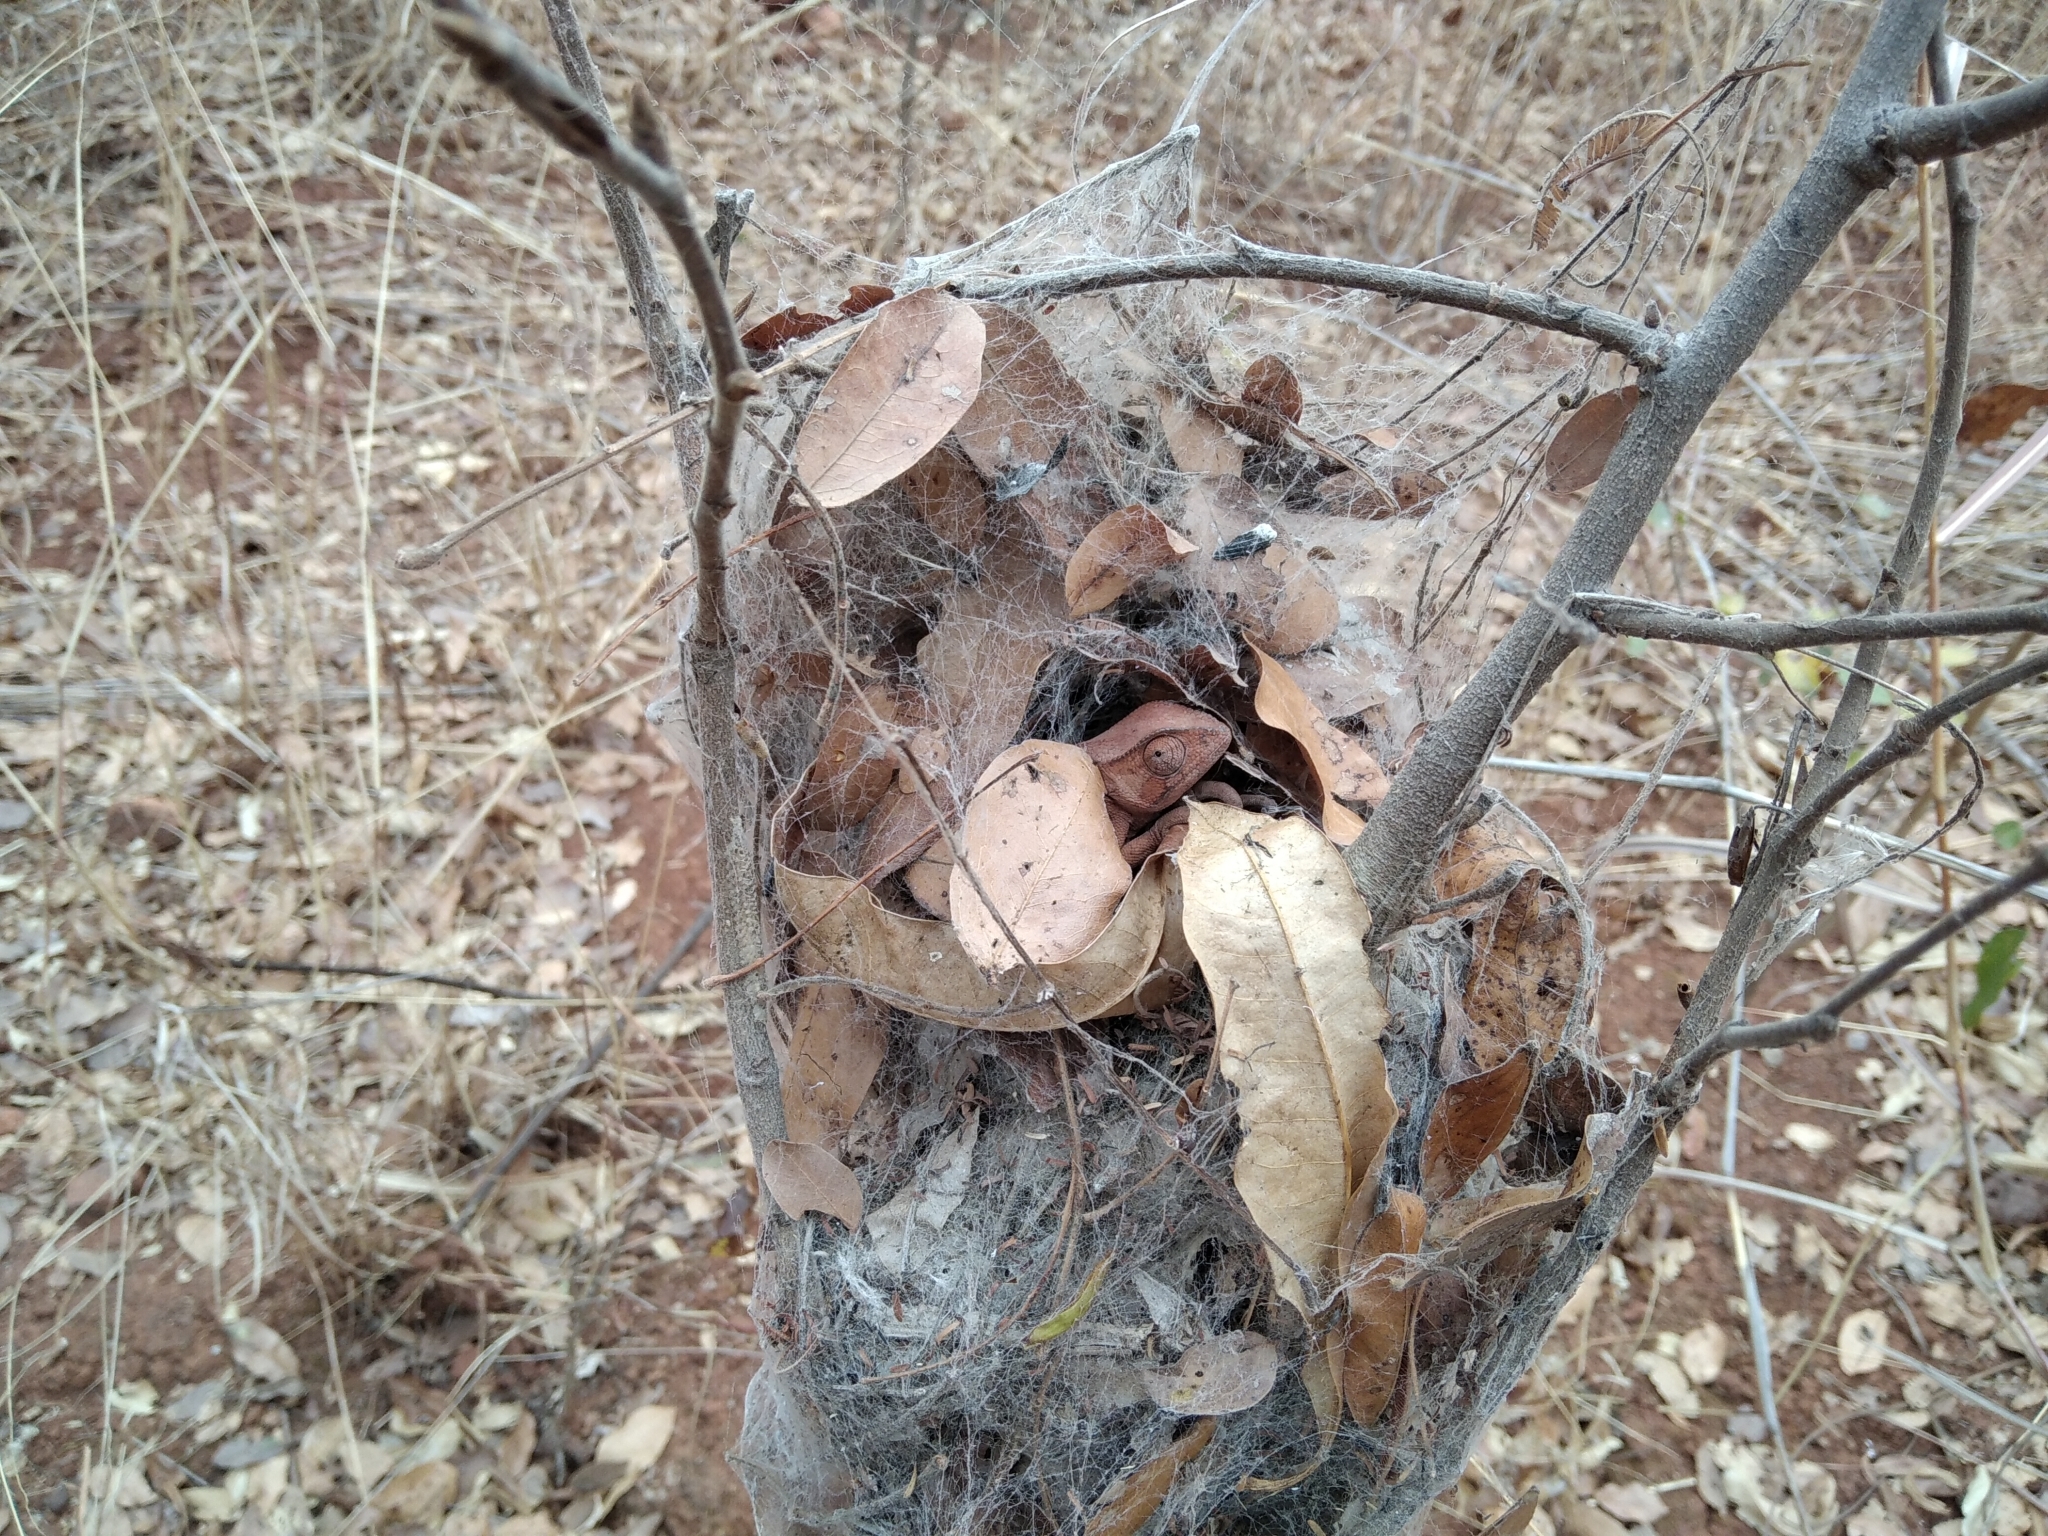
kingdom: Animalia
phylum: Chordata
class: Squamata
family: Chamaeleonidae
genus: Chamaeleo
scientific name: Chamaeleo dilepis
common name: Flapneck chameleon
